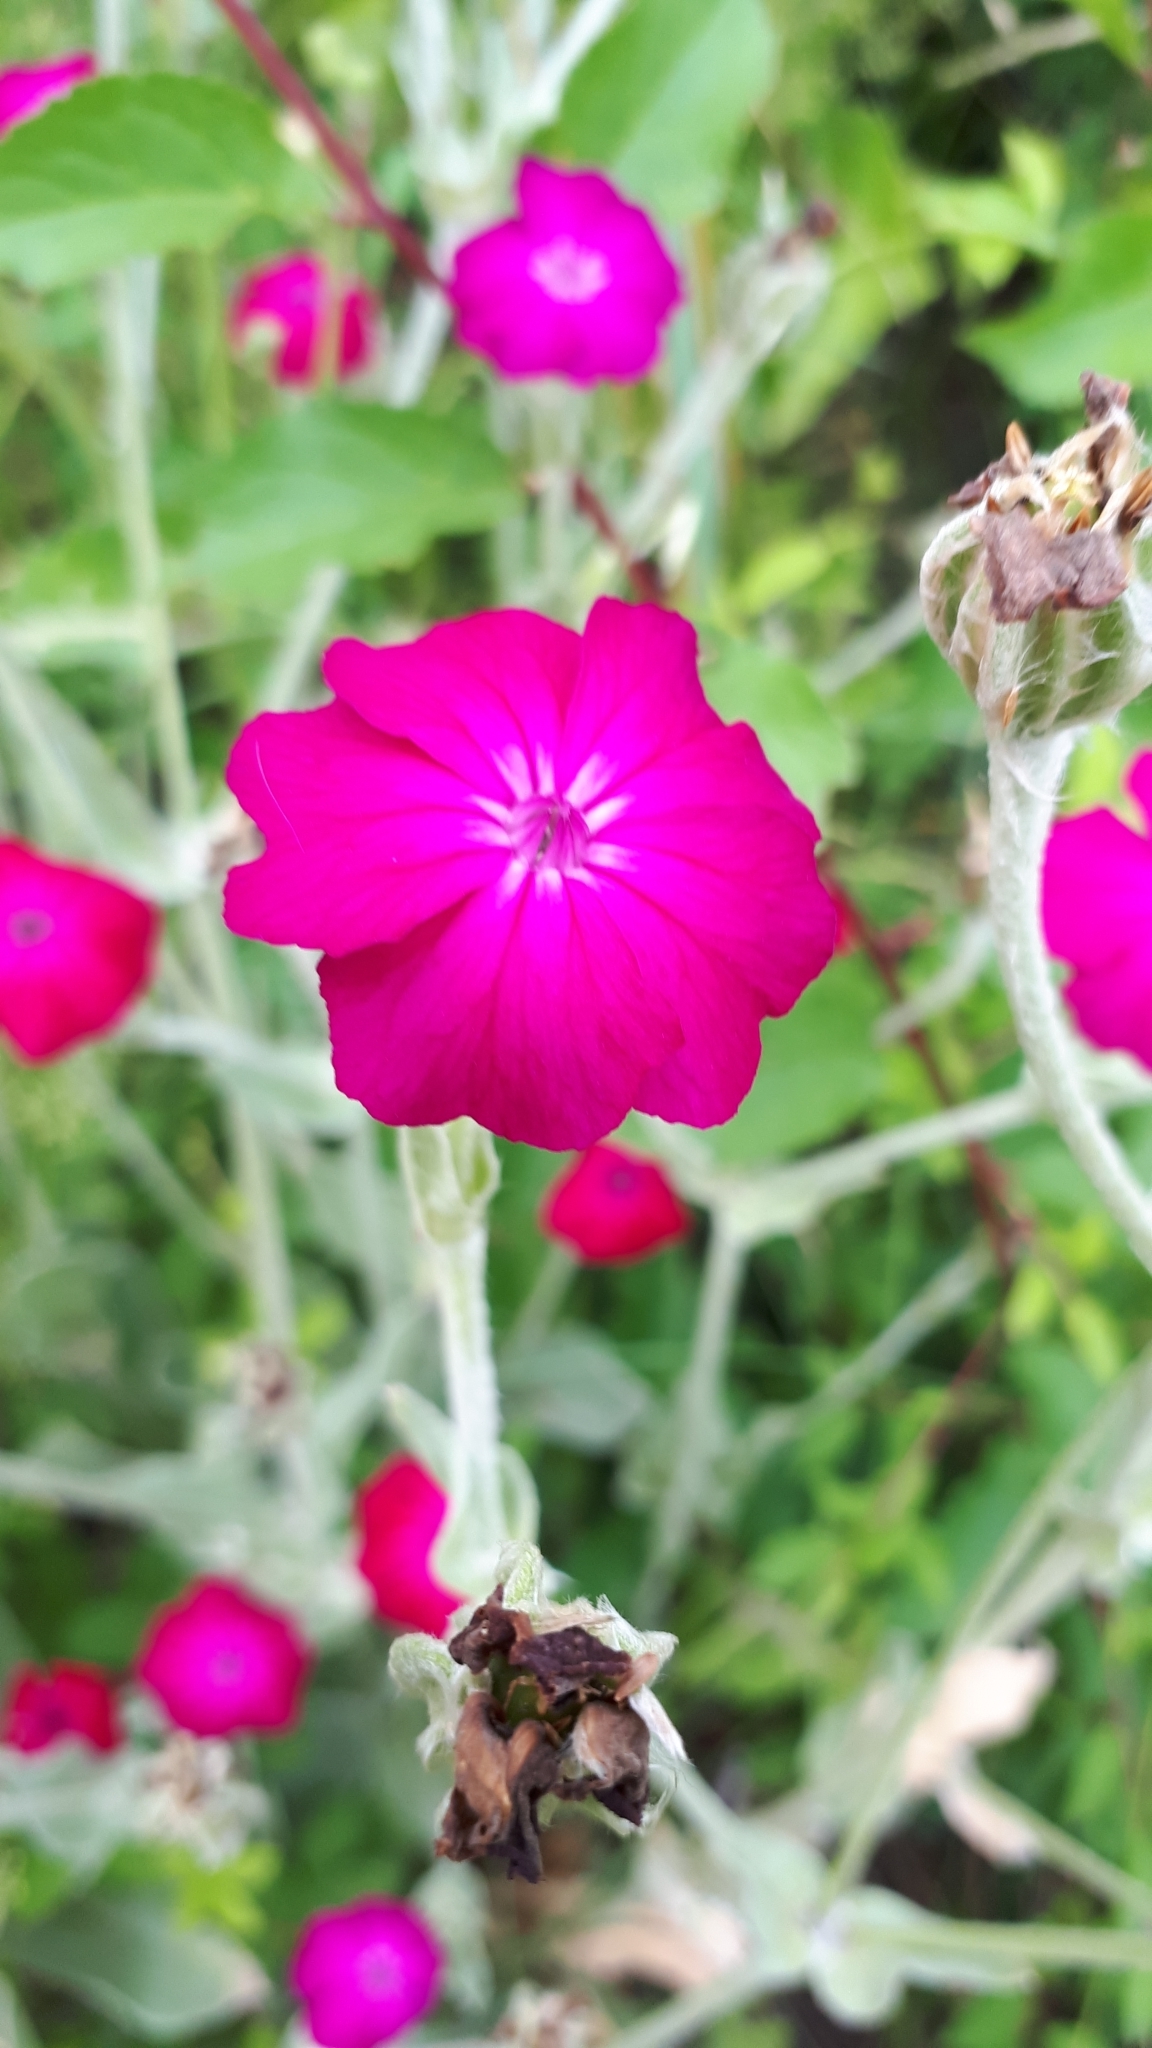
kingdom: Plantae
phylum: Tracheophyta
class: Magnoliopsida
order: Caryophyllales
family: Caryophyllaceae
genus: Silene
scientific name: Silene coronaria
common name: Rose campion
